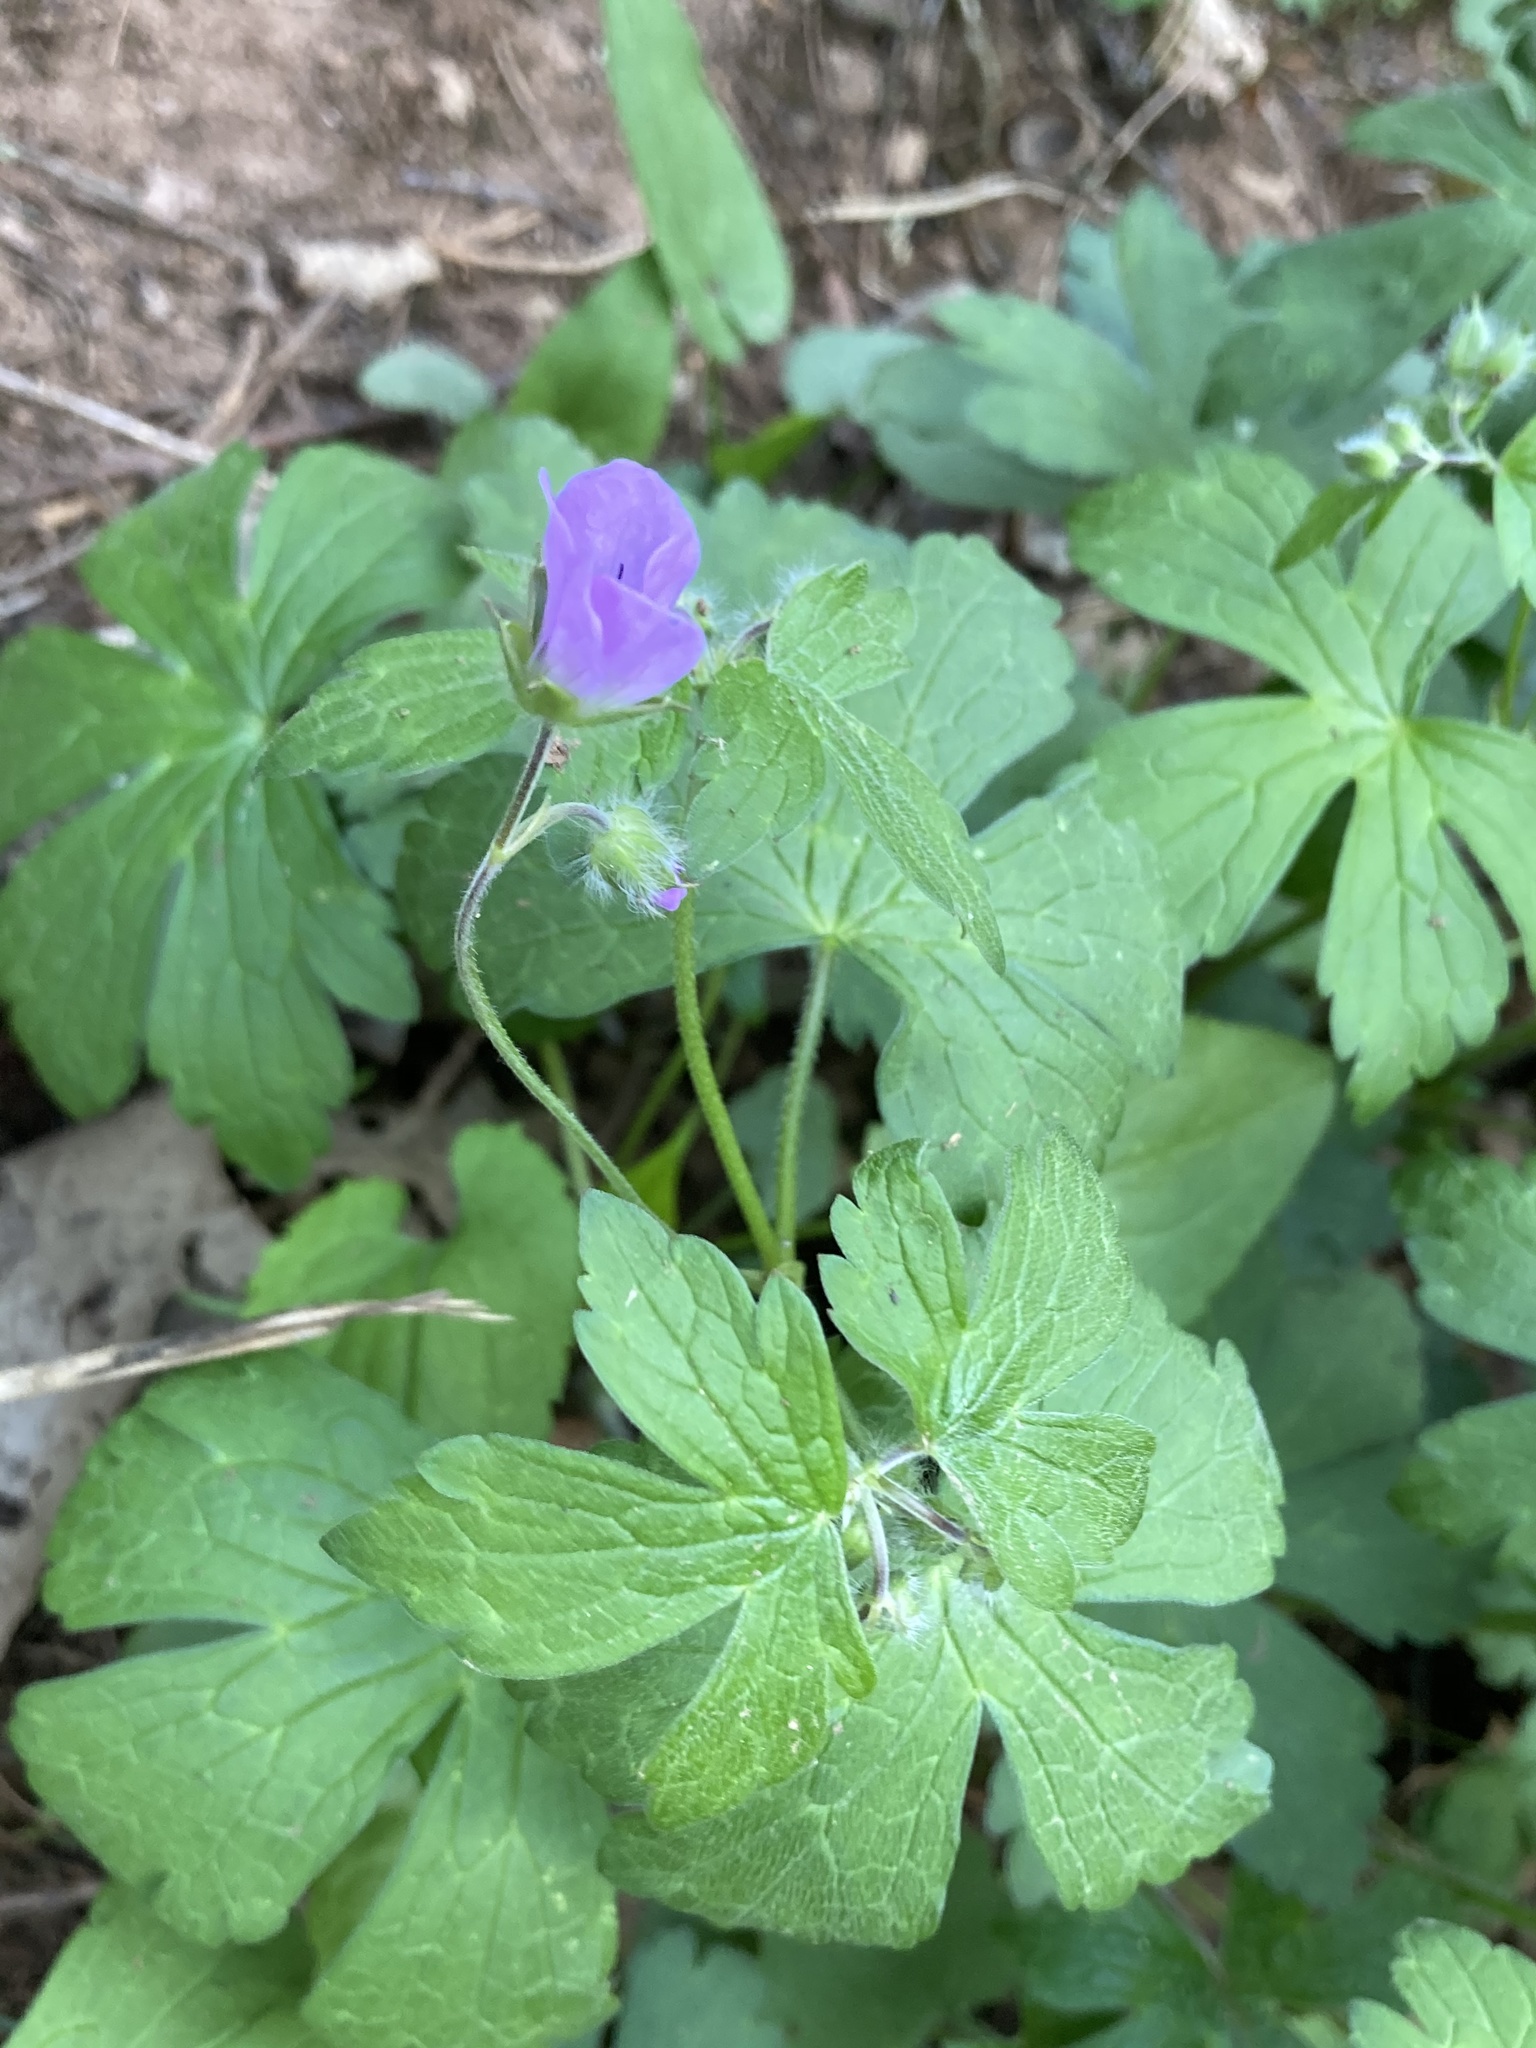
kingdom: Plantae
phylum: Tracheophyta
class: Magnoliopsida
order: Geraniales
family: Geraniaceae
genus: Geranium
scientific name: Geranium maculatum
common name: Spotted geranium
